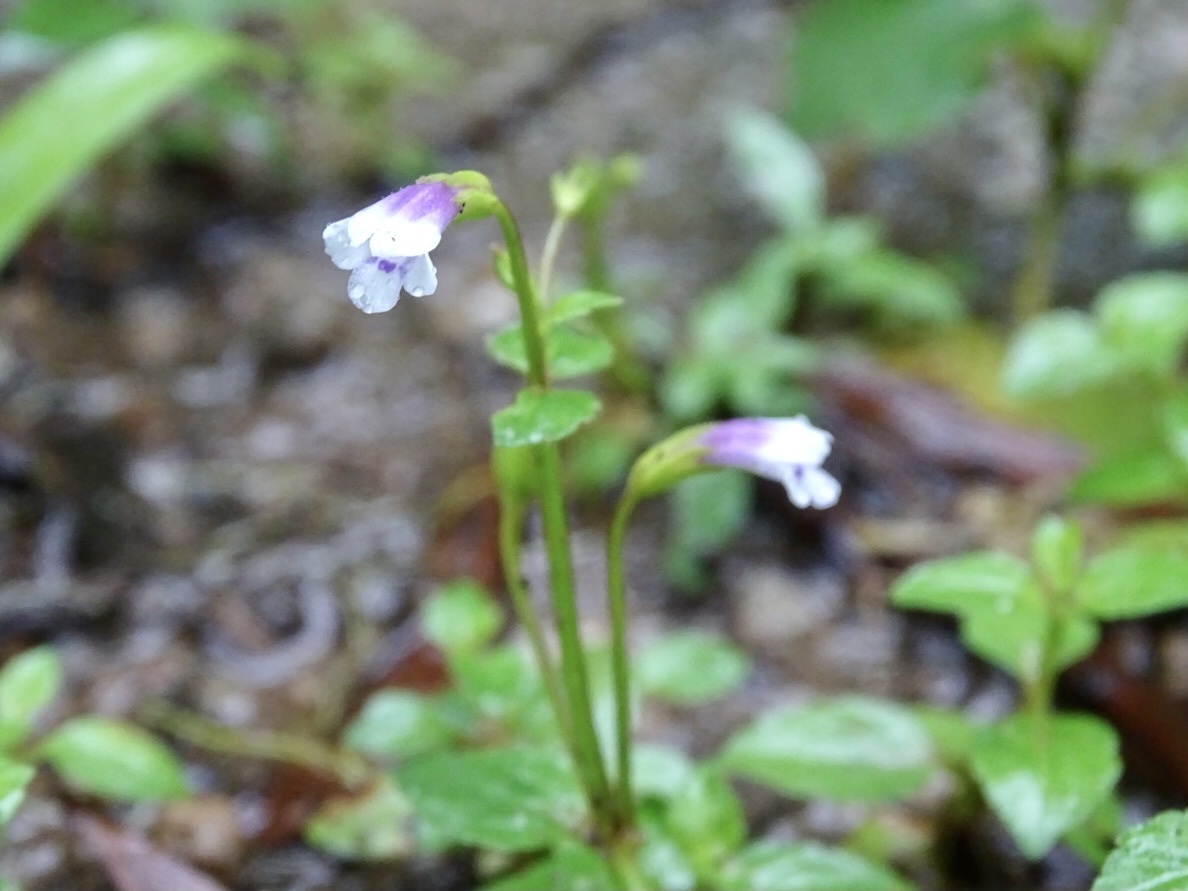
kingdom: Plantae
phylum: Tracheophyta
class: Magnoliopsida
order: Lamiales
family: Linderniaceae
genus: Torenia
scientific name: Torenia crustacea
